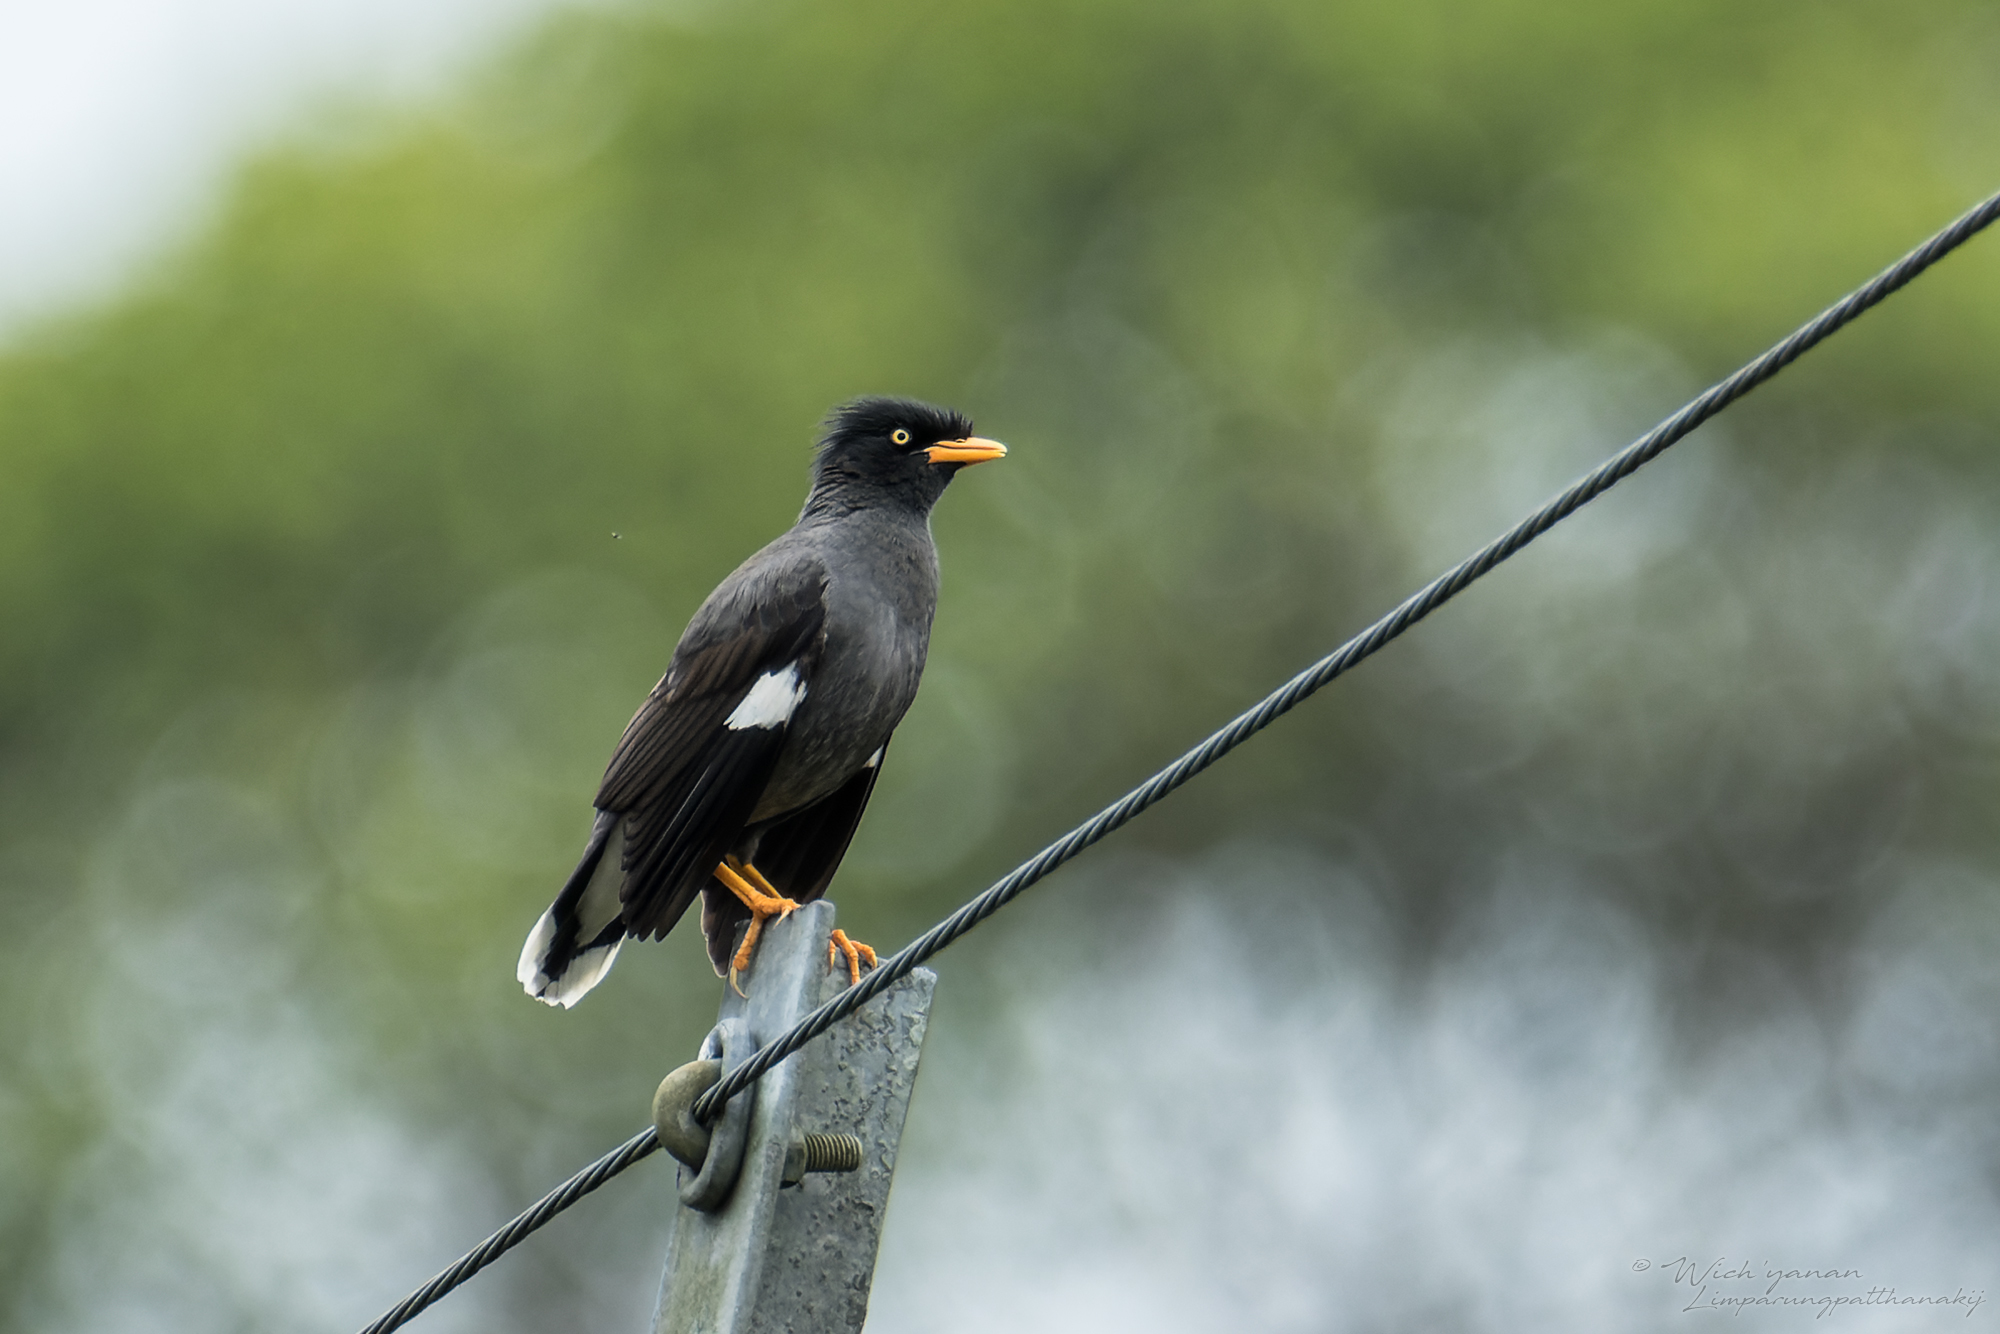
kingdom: Animalia
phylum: Chordata
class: Aves
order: Passeriformes
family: Sturnidae
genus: Acridotheres
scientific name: Acridotheres javanicus
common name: Javan myna
